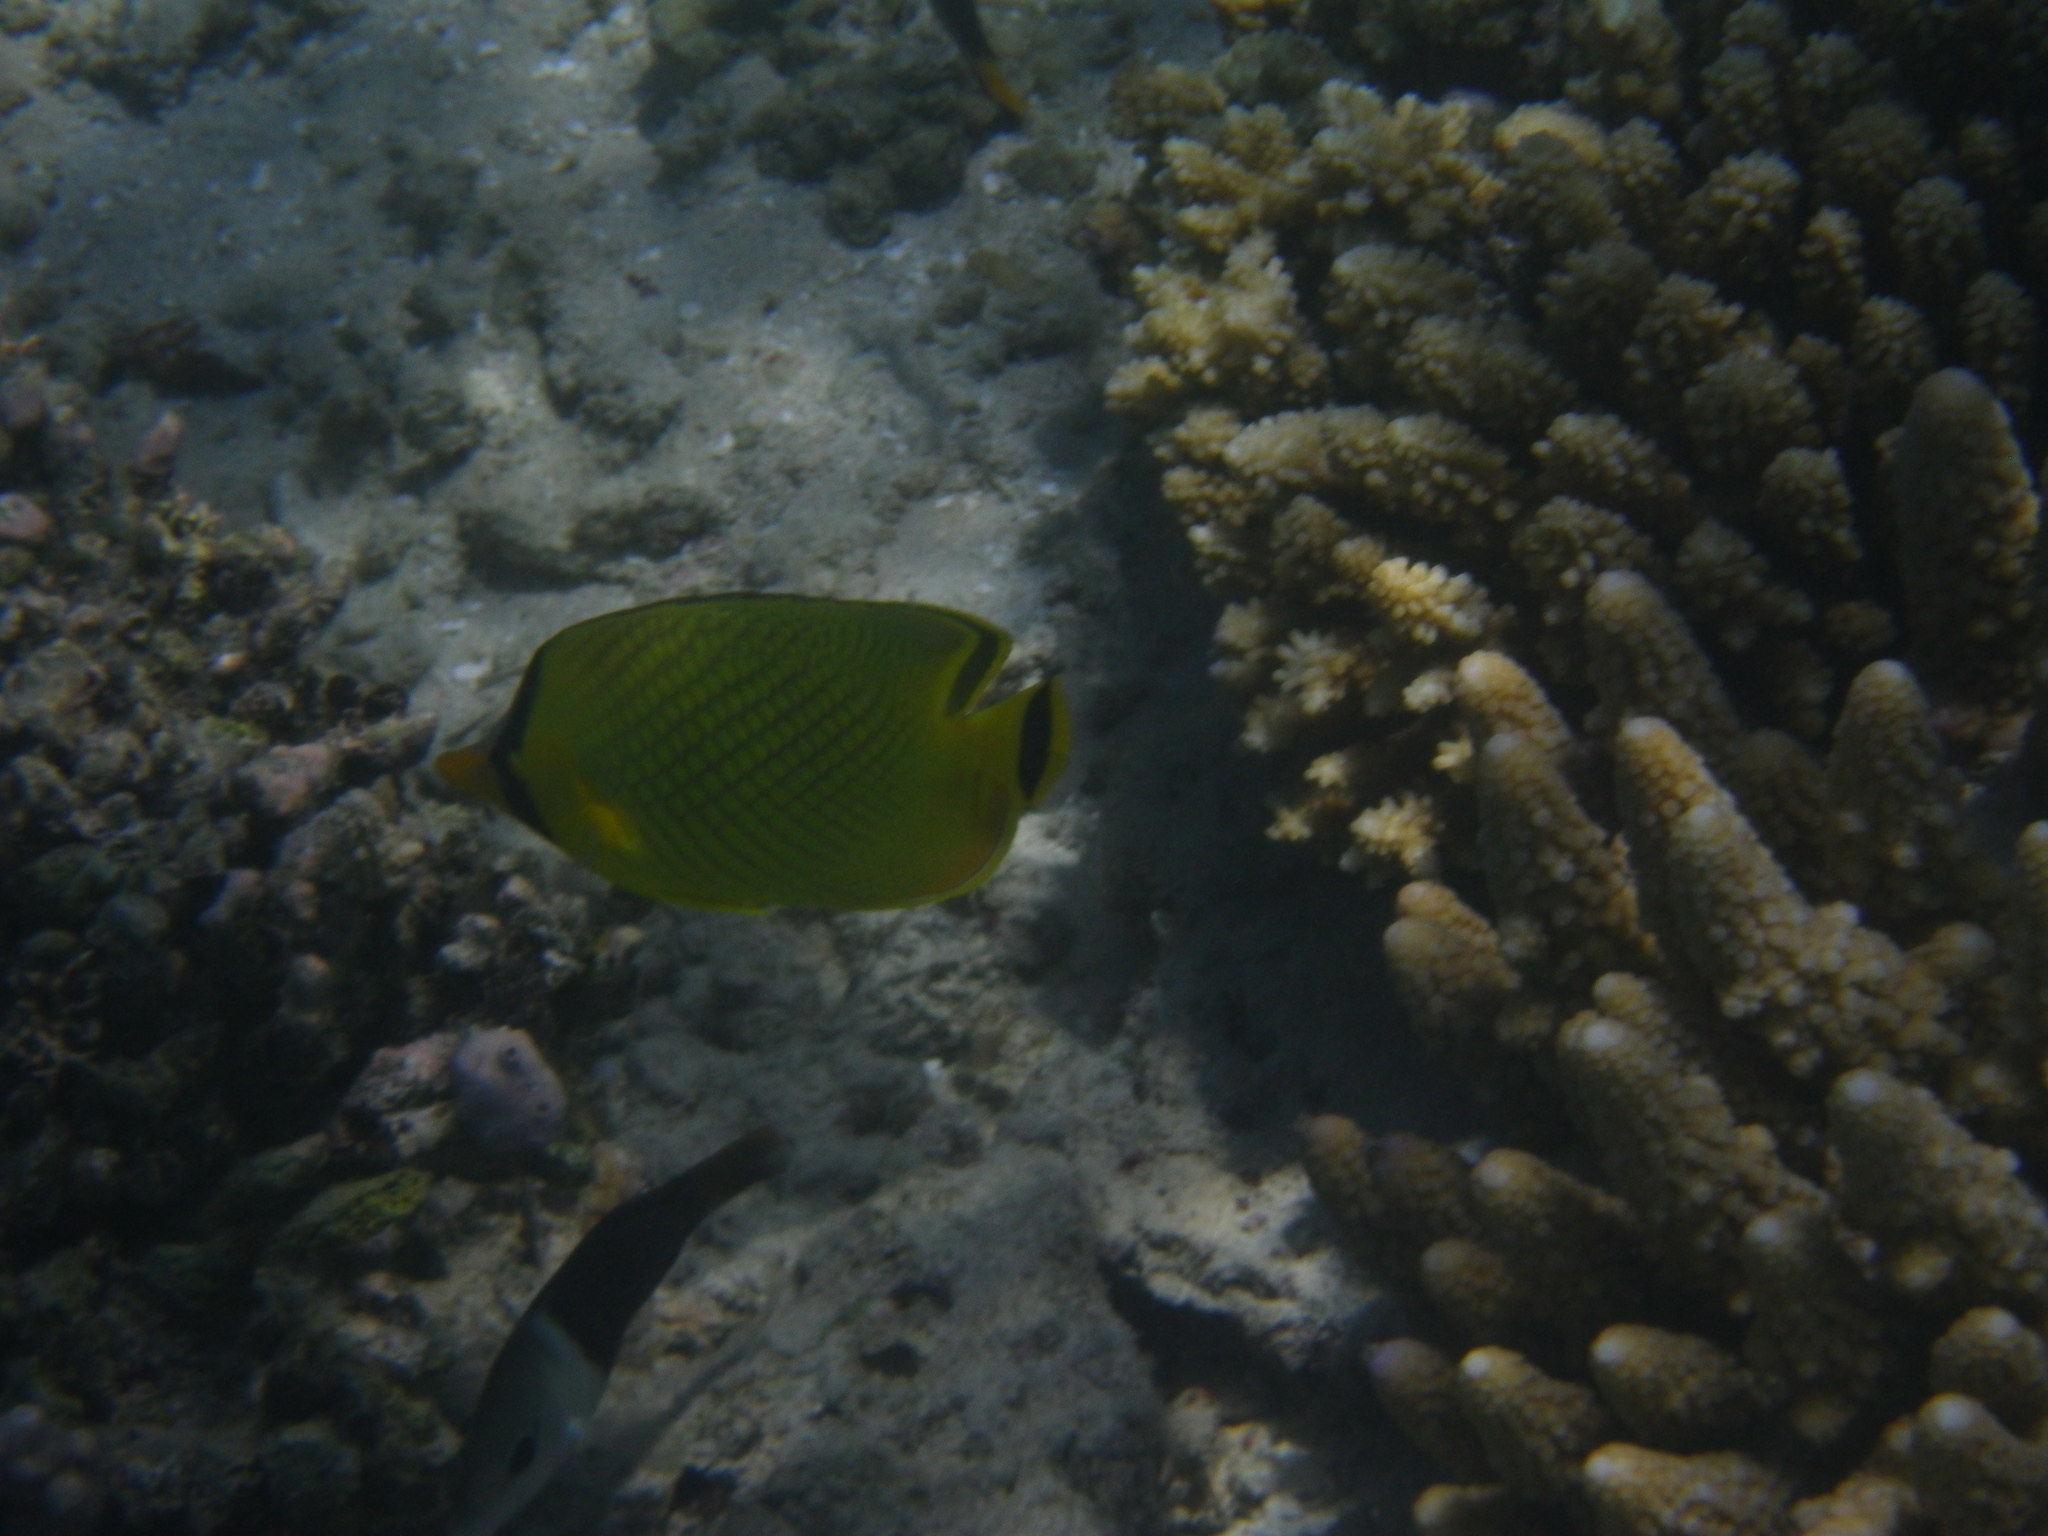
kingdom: Animalia
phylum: Chordata
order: Perciformes
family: Chaetodontidae
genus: Chaetodon
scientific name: Chaetodon rafflesii
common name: Latticed butterflyfish
